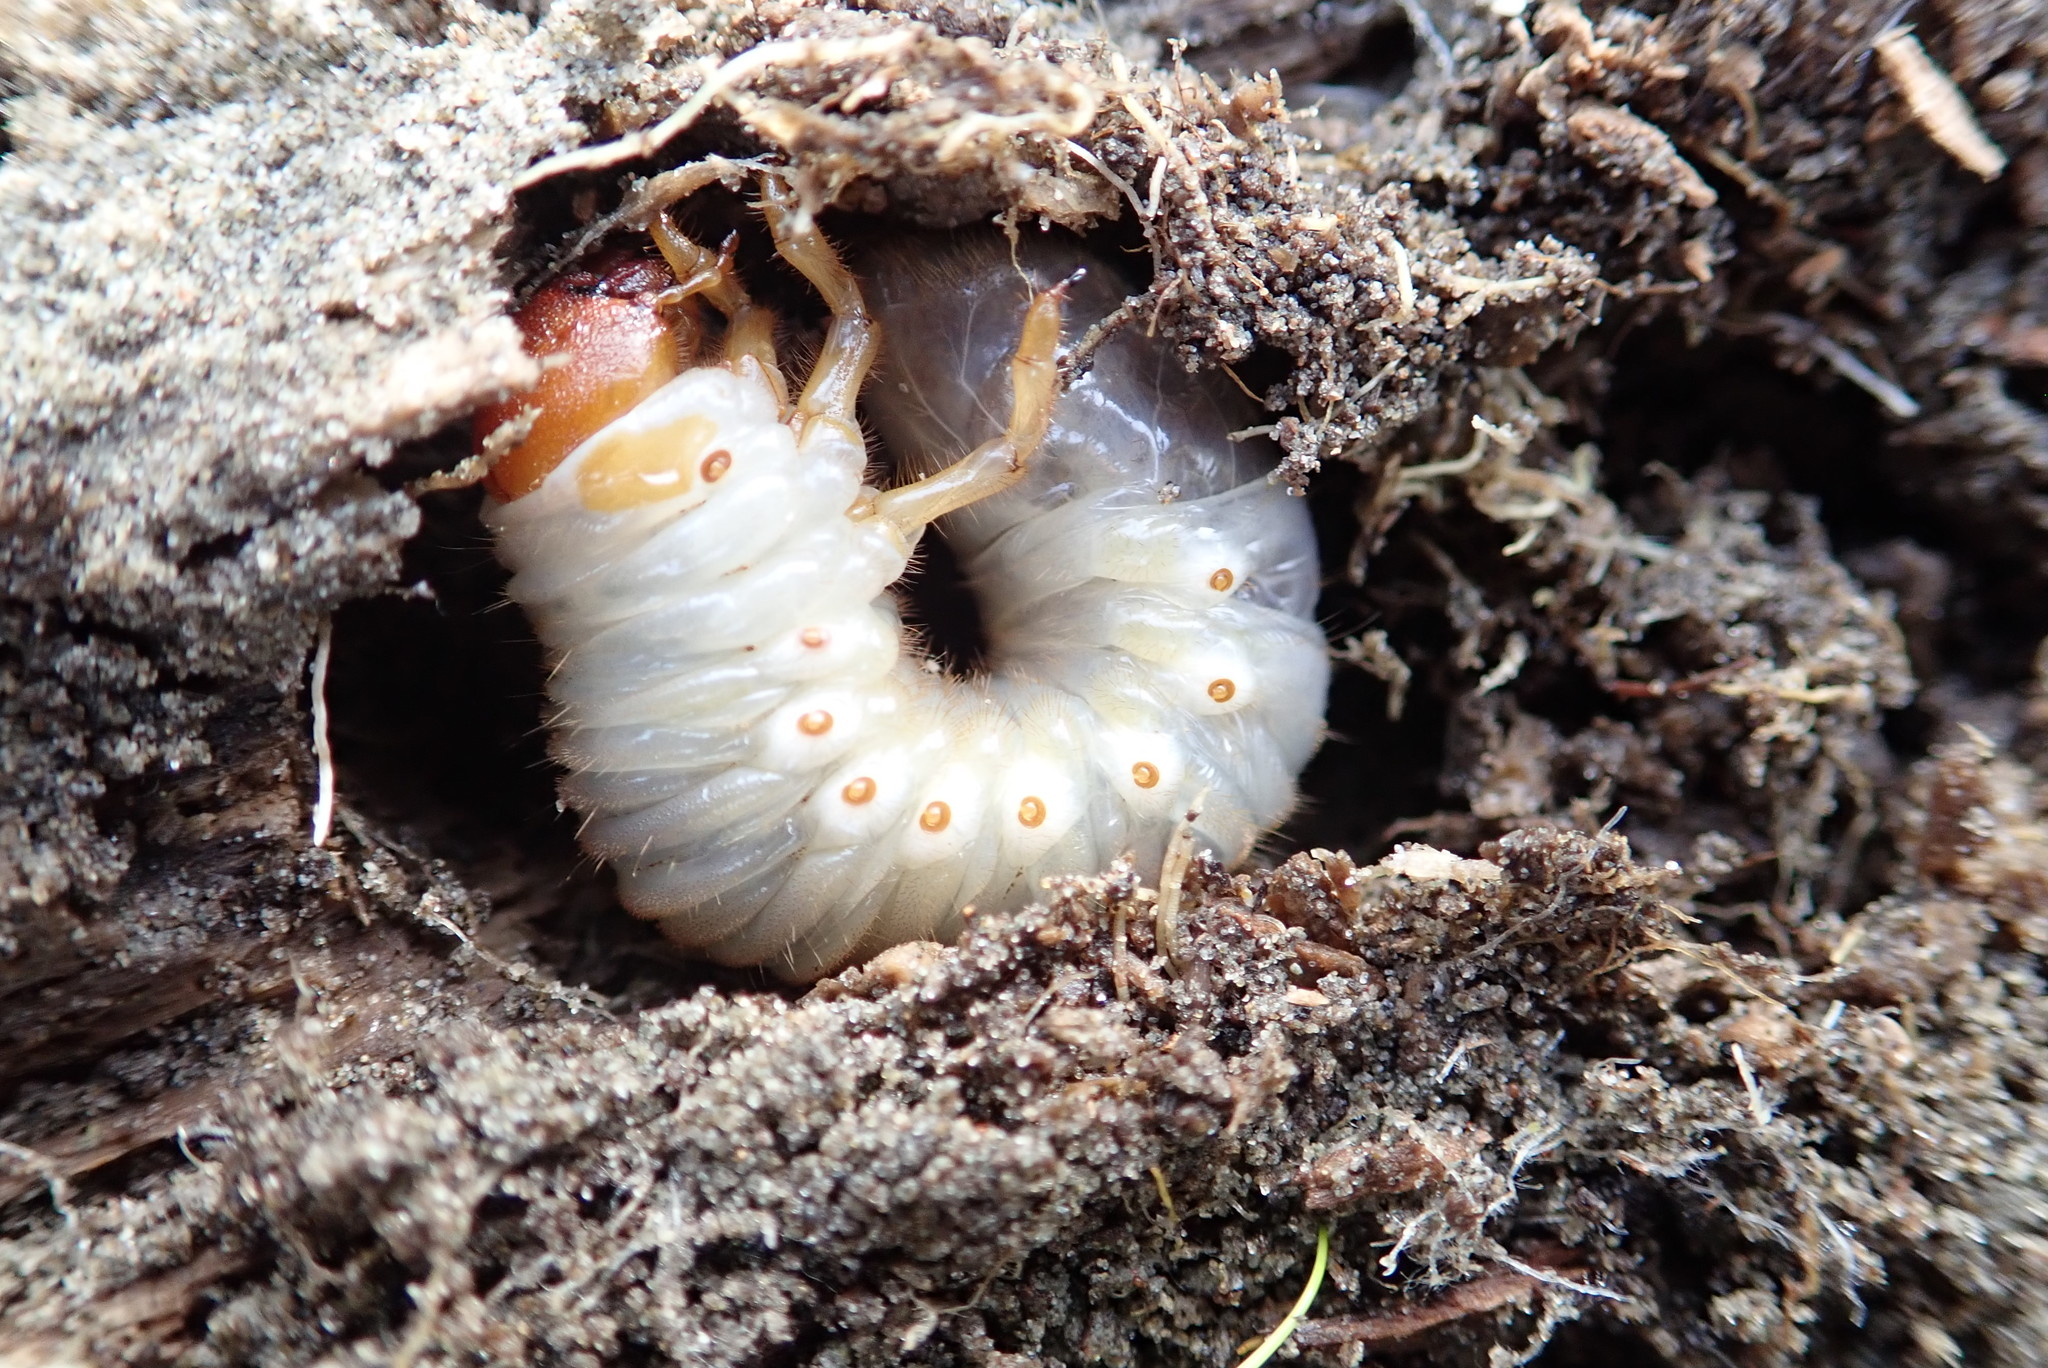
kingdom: Animalia
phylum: Arthropoda
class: Insecta
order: Coleoptera
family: Scarabaeidae
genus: Pericoptus
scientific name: Pericoptus truncatus
